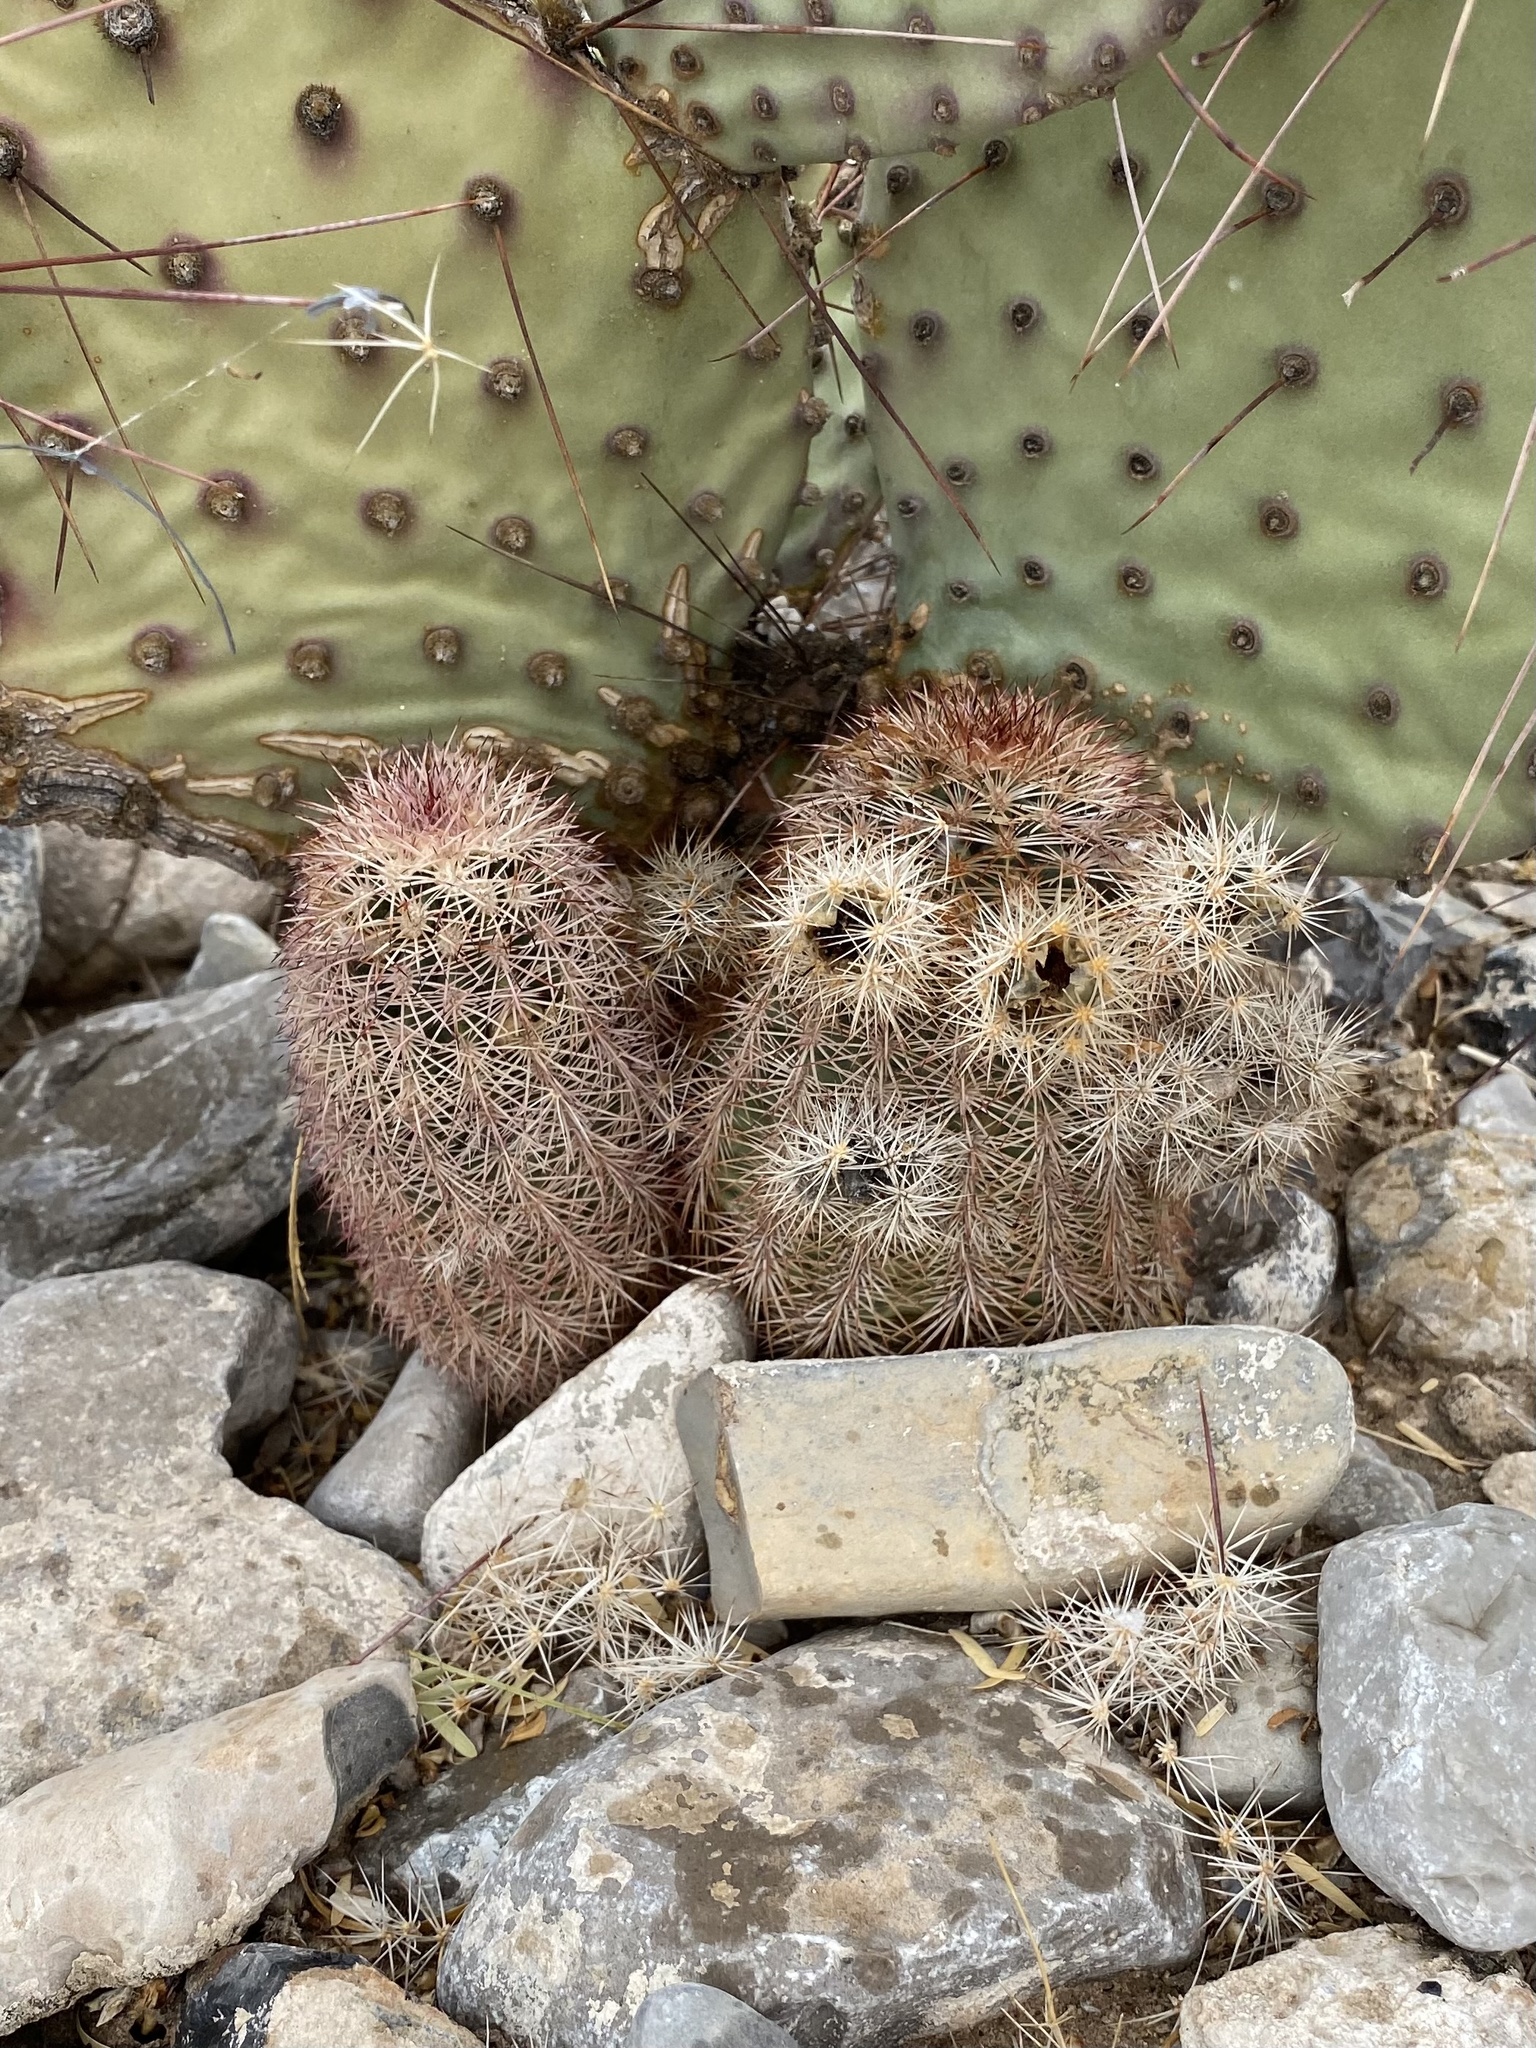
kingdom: Plantae
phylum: Tracheophyta
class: Magnoliopsida
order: Caryophyllales
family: Cactaceae
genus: Echinocereus
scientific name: Echinocereus dasyacanthus
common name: Spiny hedgehog cactus
